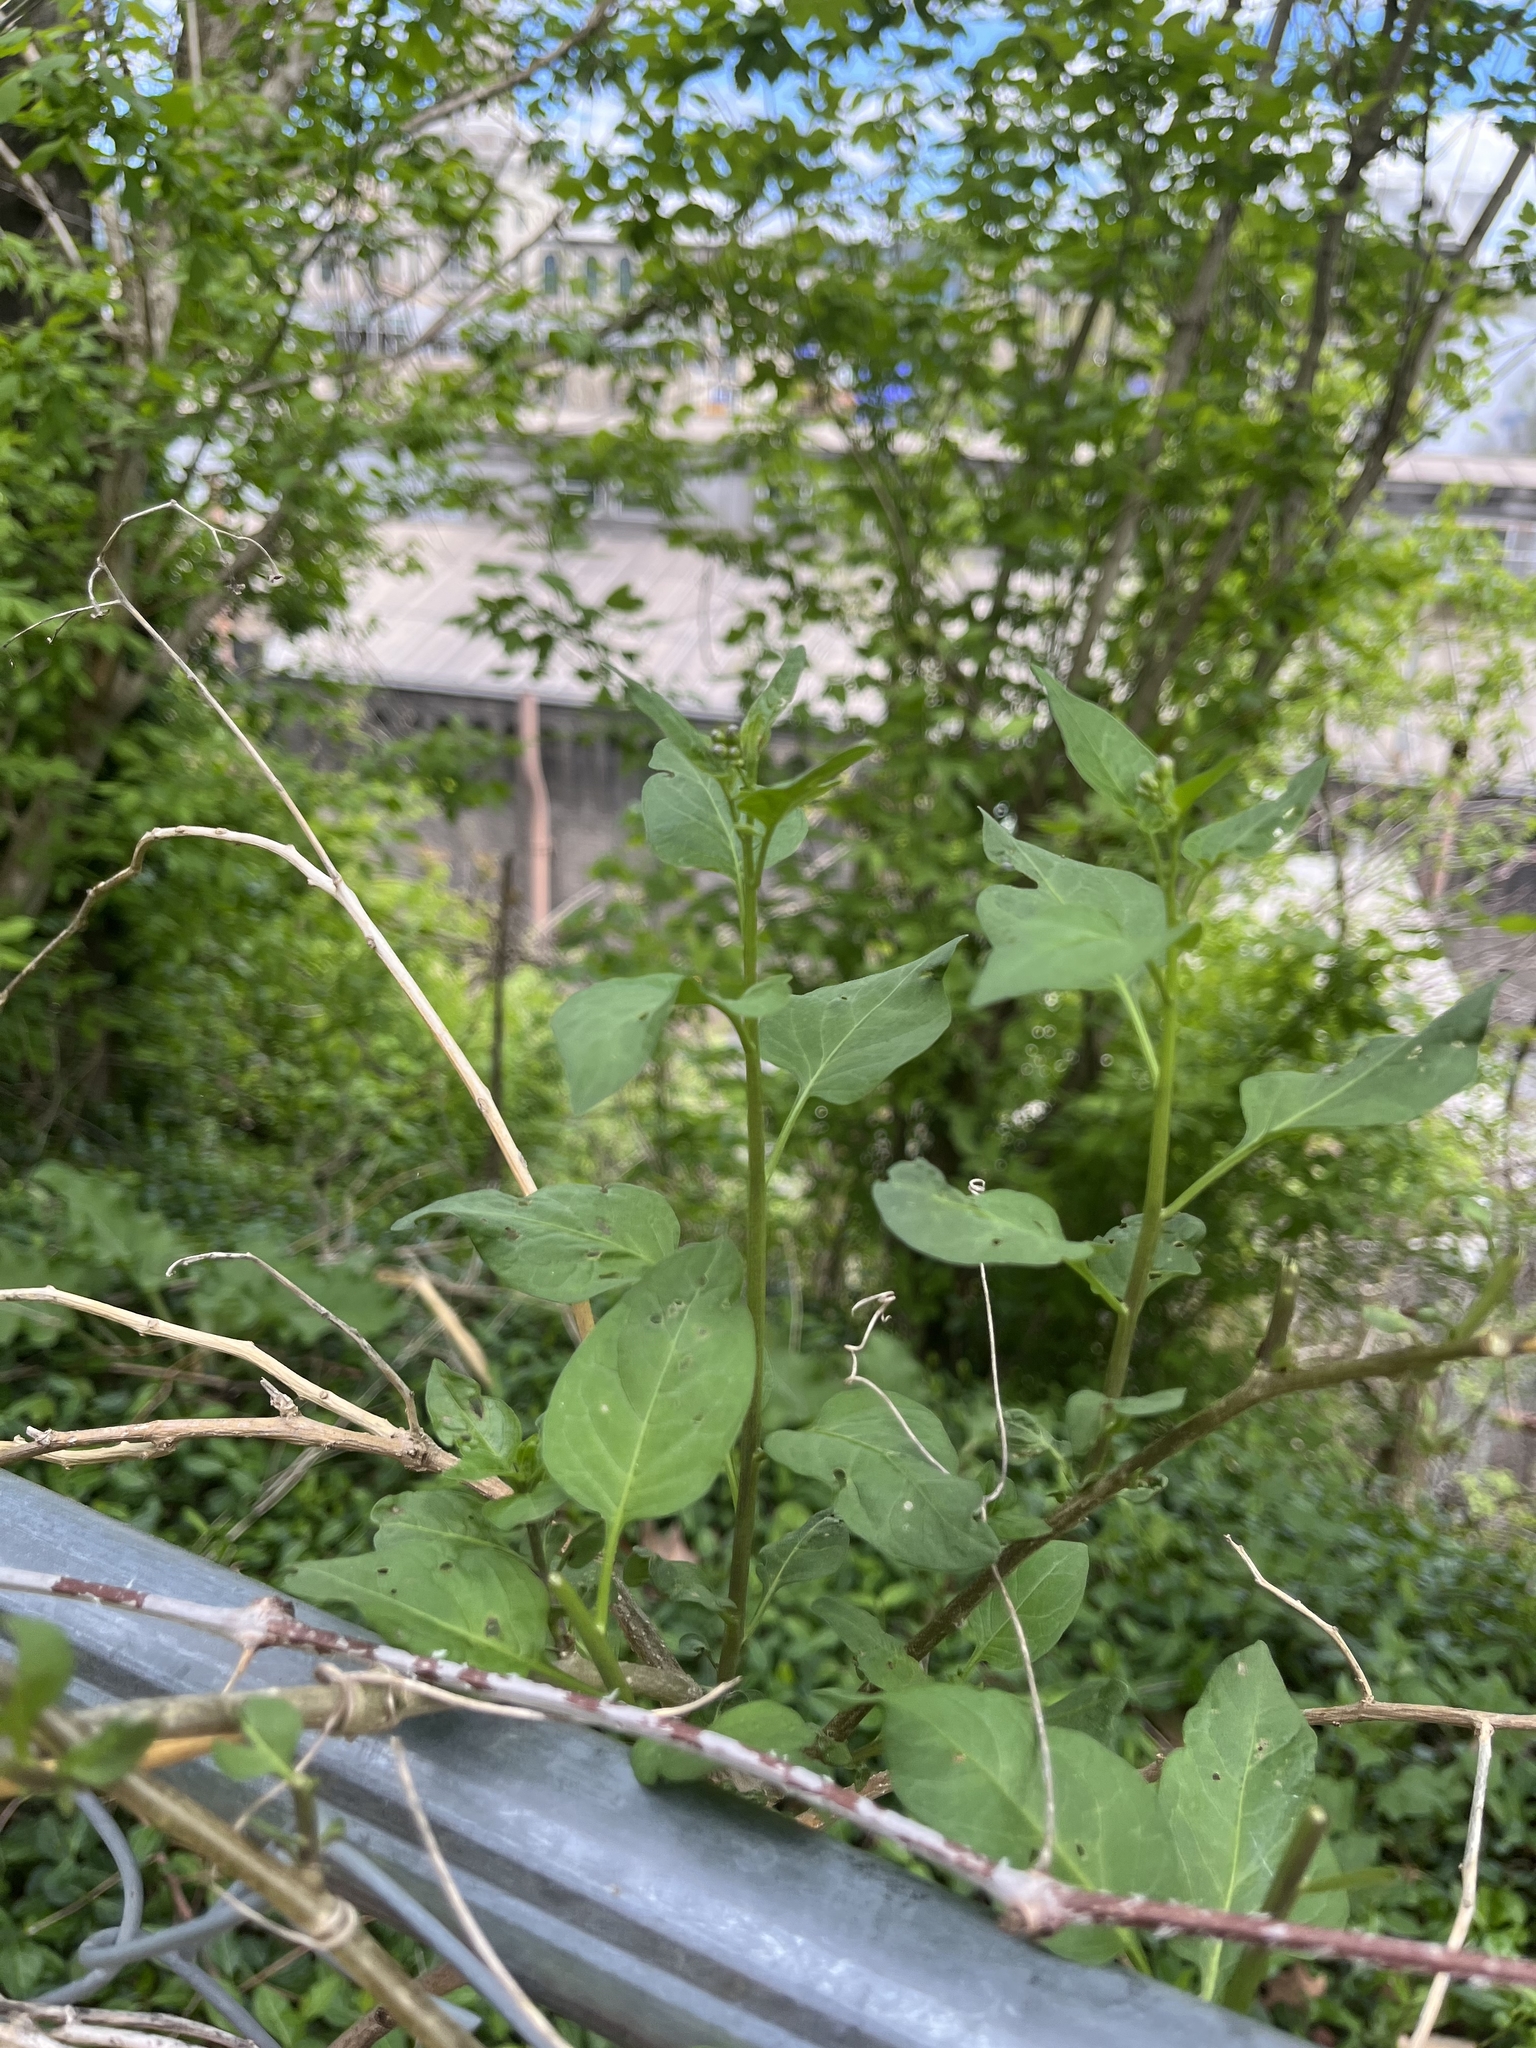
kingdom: Plantae
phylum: Tracheophyta
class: Magnoliopsida
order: Solanales
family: Solanaceae
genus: Solanum
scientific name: Solanum dulcamara
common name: Climbing nightshade
